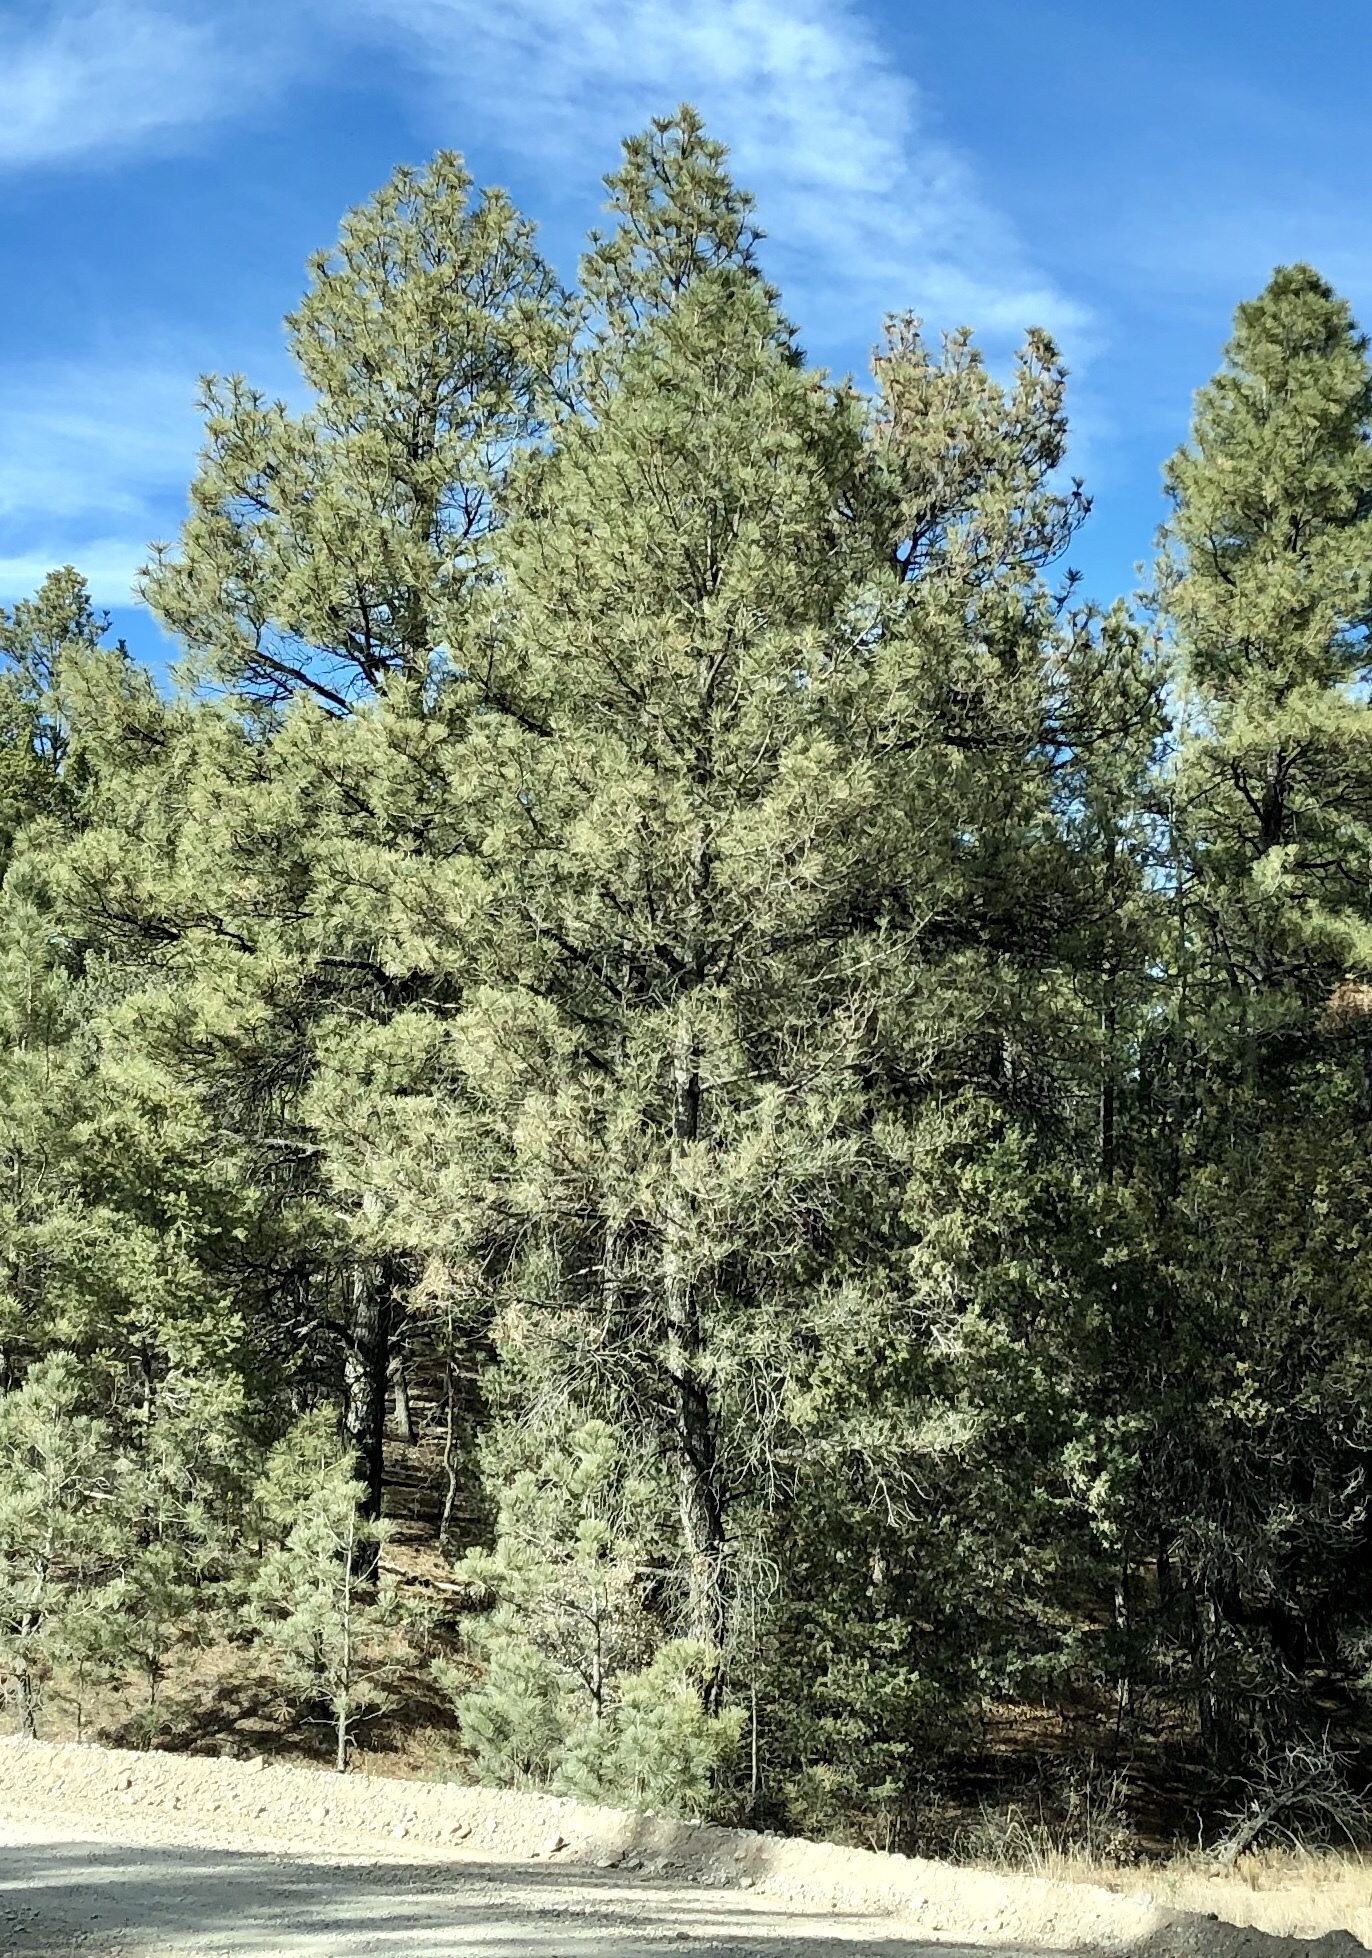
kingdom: Plantae
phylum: Tracheophyta
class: Pinopsida
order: Pinales
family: Pinaceae
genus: Pinus
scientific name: Pinus ponderosa
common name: Western yellow-pine
